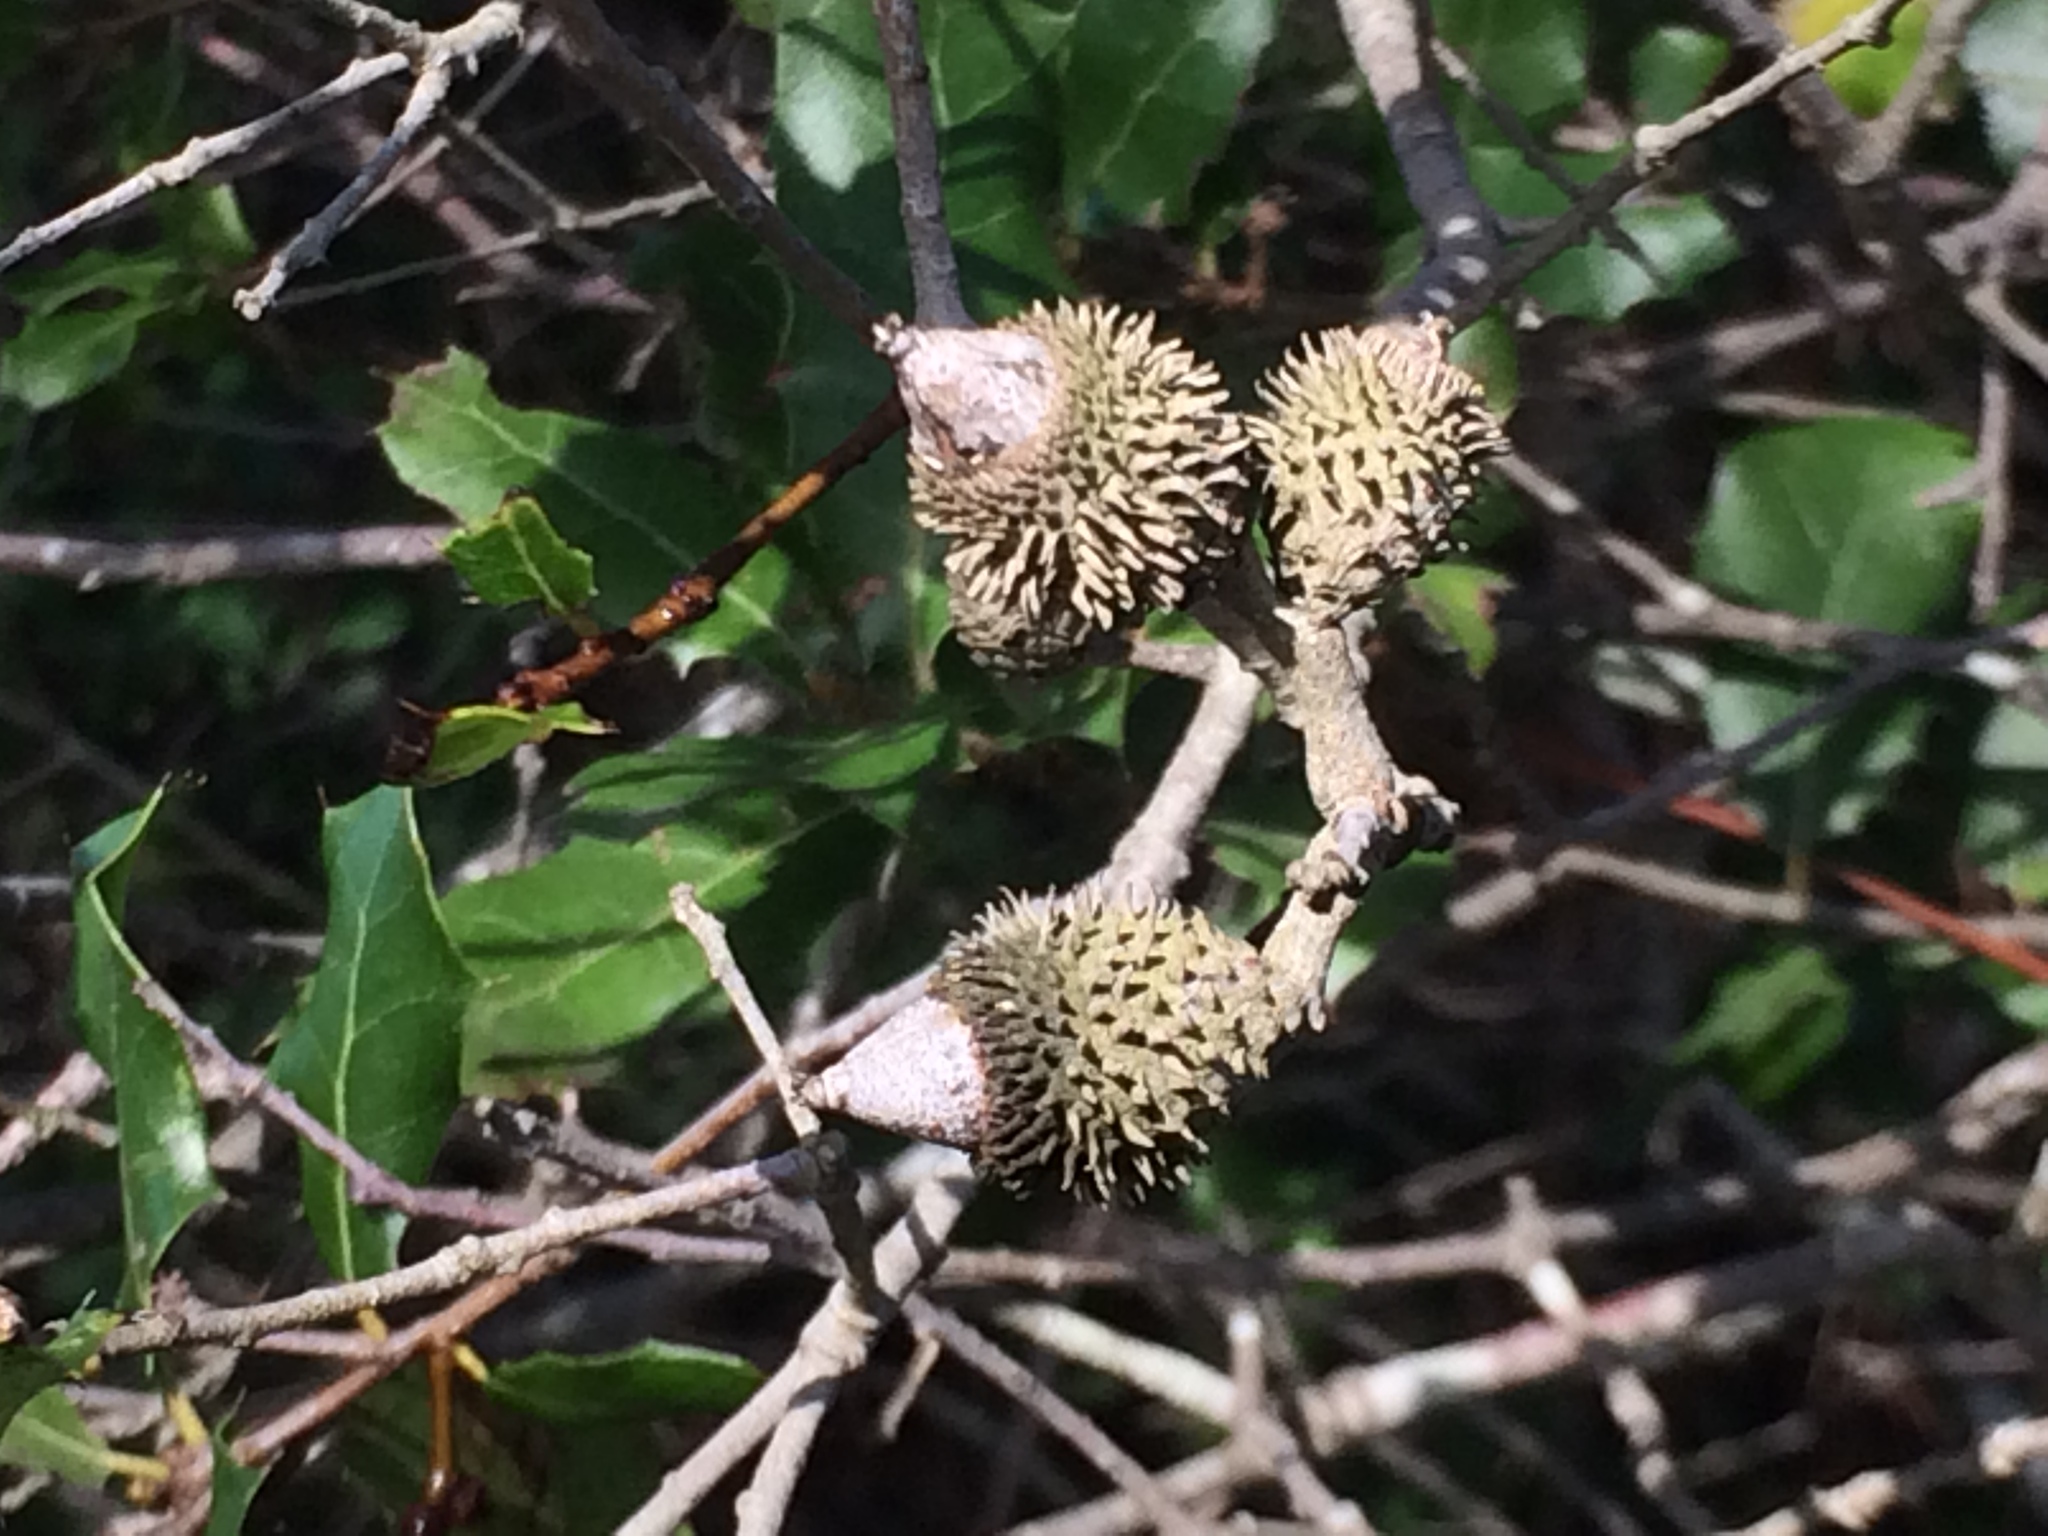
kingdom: Plantae
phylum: Tracheophyta
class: Magnoliopsida
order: Fagales
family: Fagaceae
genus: Quercus
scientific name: Quercus coccifera
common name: Kermes oak
